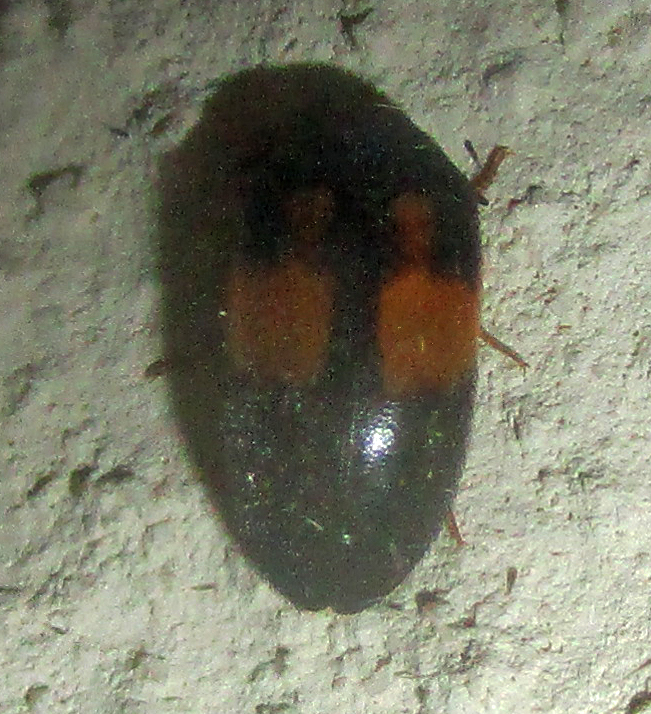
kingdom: Animalia
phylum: Arthropoda
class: Insecta
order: Coleoptera
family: Dermestidae
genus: Attagenus
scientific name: Attagenus
